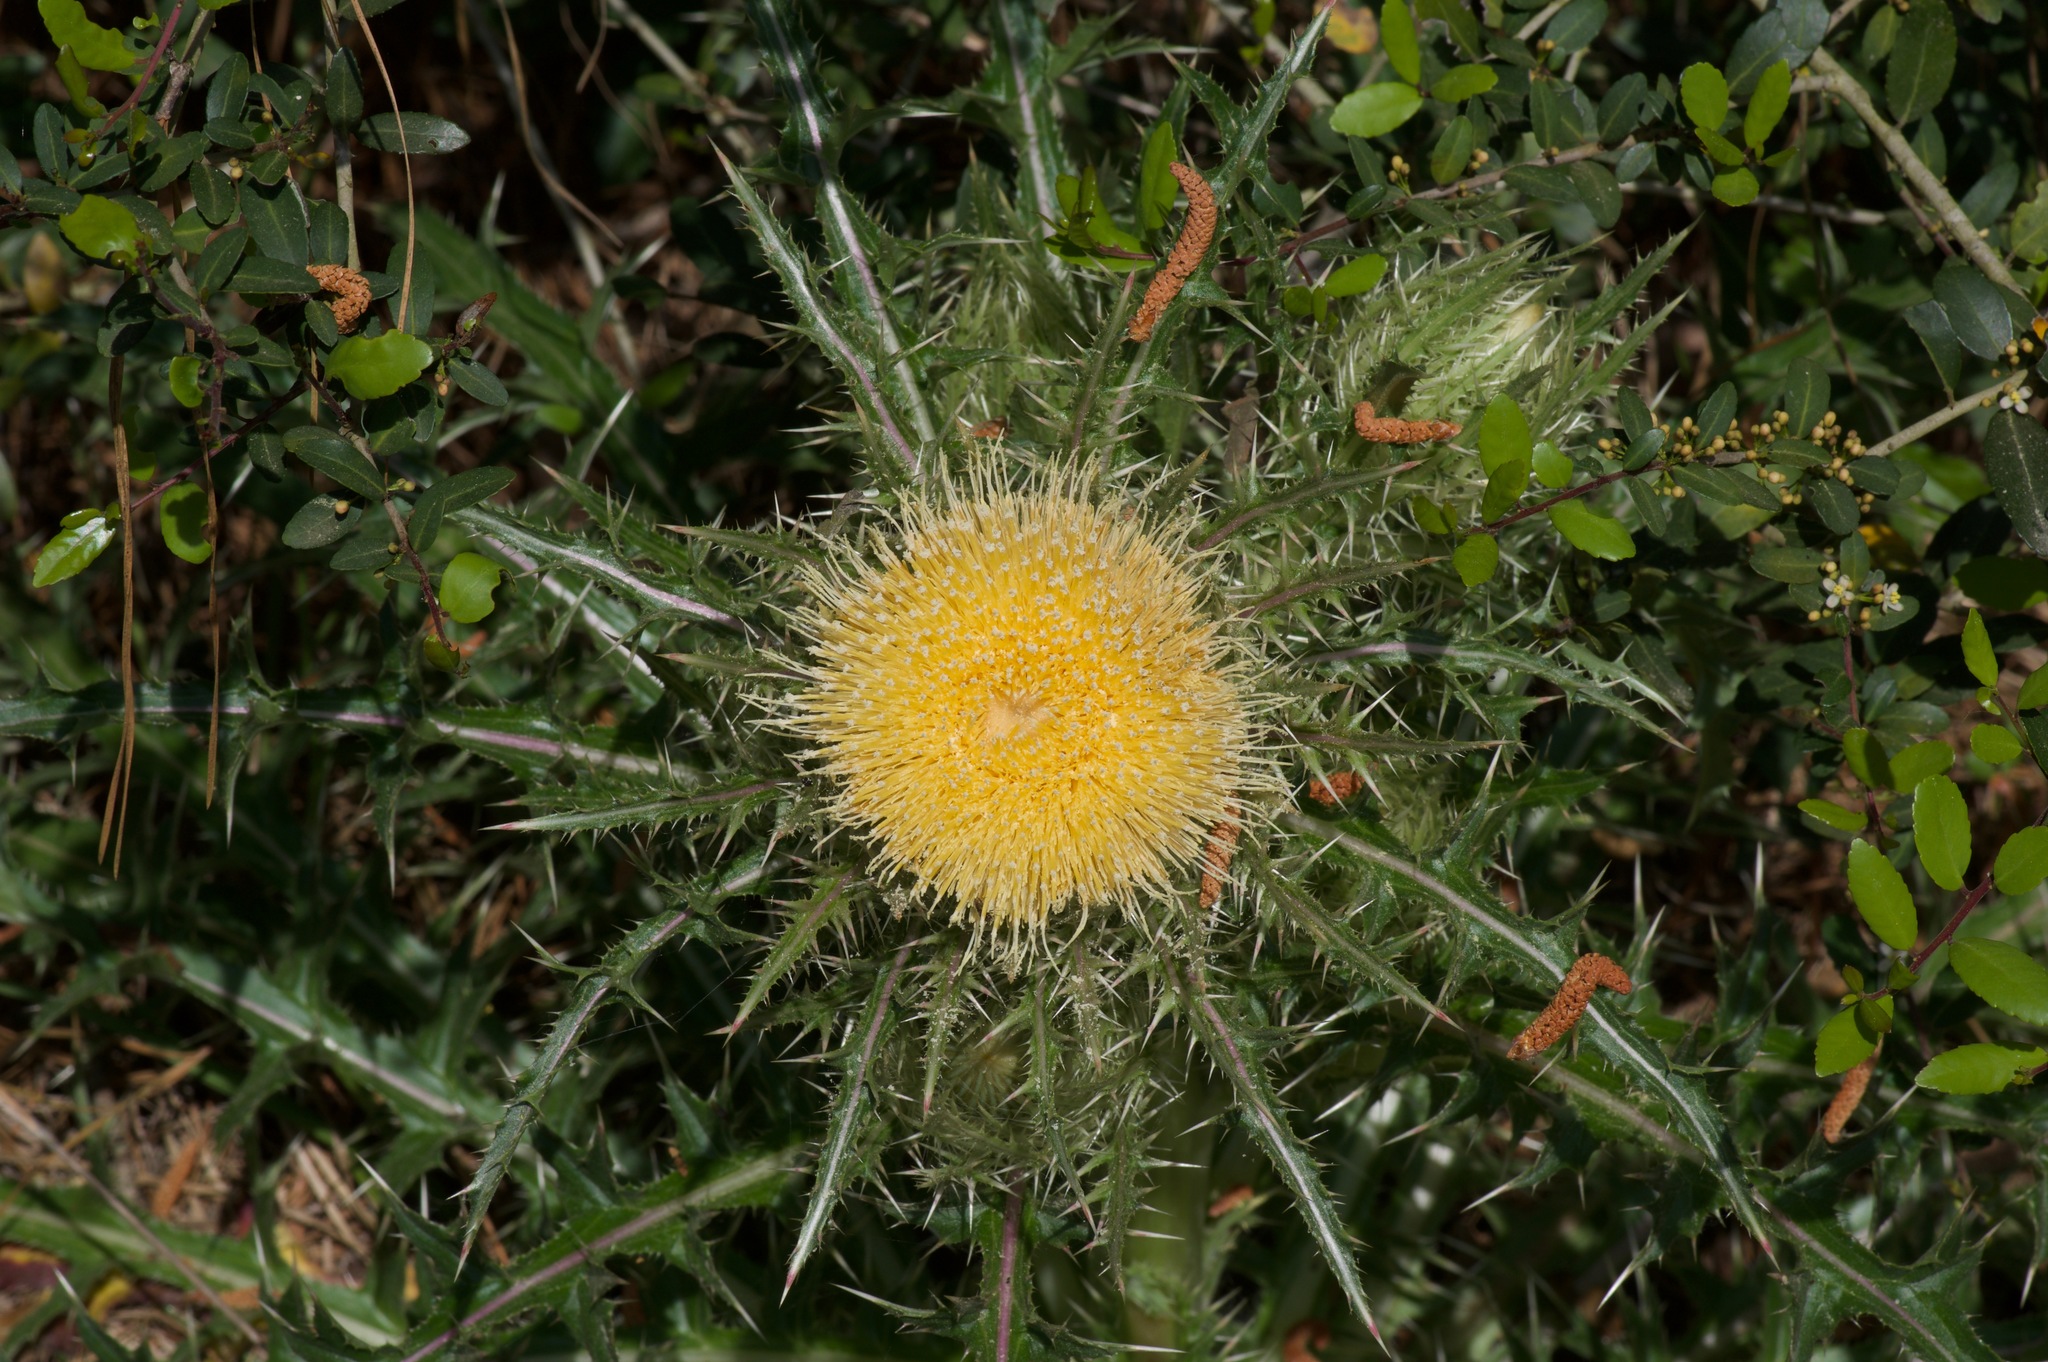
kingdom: Plantae
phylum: Tracheophyta
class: Magnoliopsida
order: Asterales
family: Asteraceae
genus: Cirsium
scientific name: Cirsium horridulum
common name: Bristly thistle
